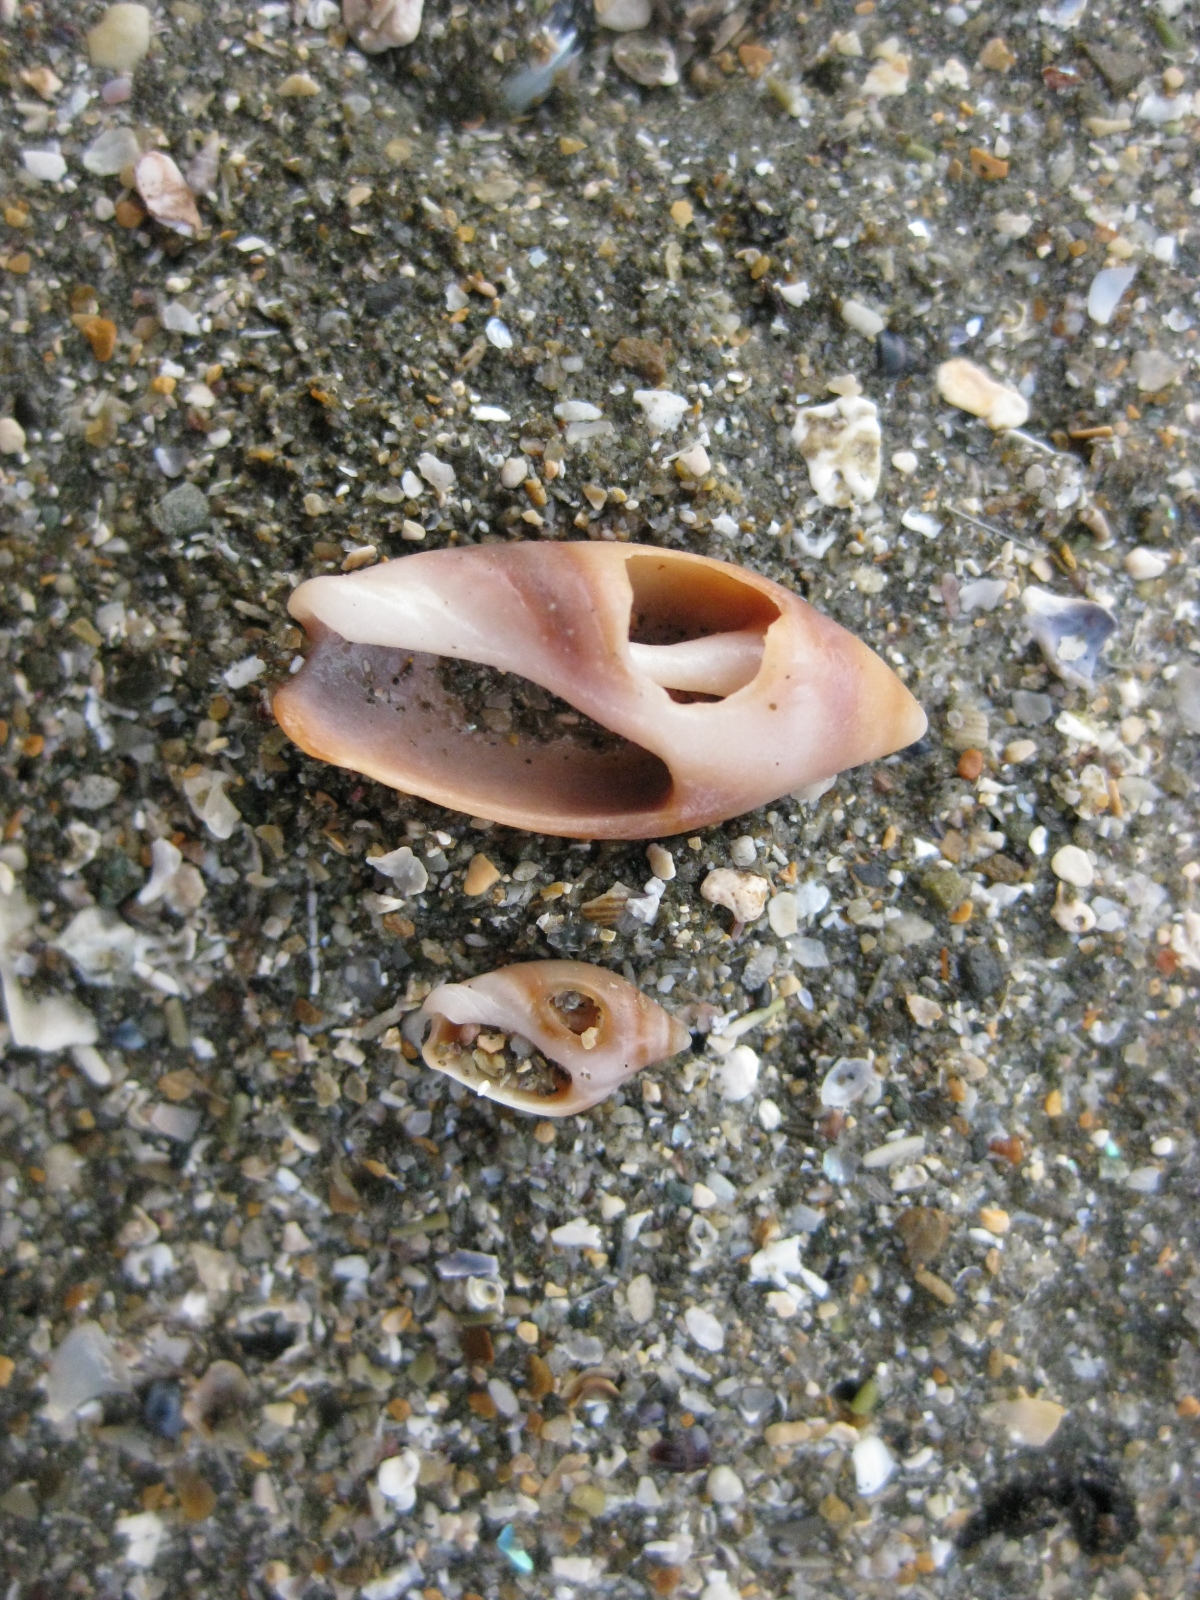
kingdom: Animalia
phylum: Mollusca
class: Gastropoda
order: Neogastropoda
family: Ancillariidae
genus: Amalda
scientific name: Amalda australis
